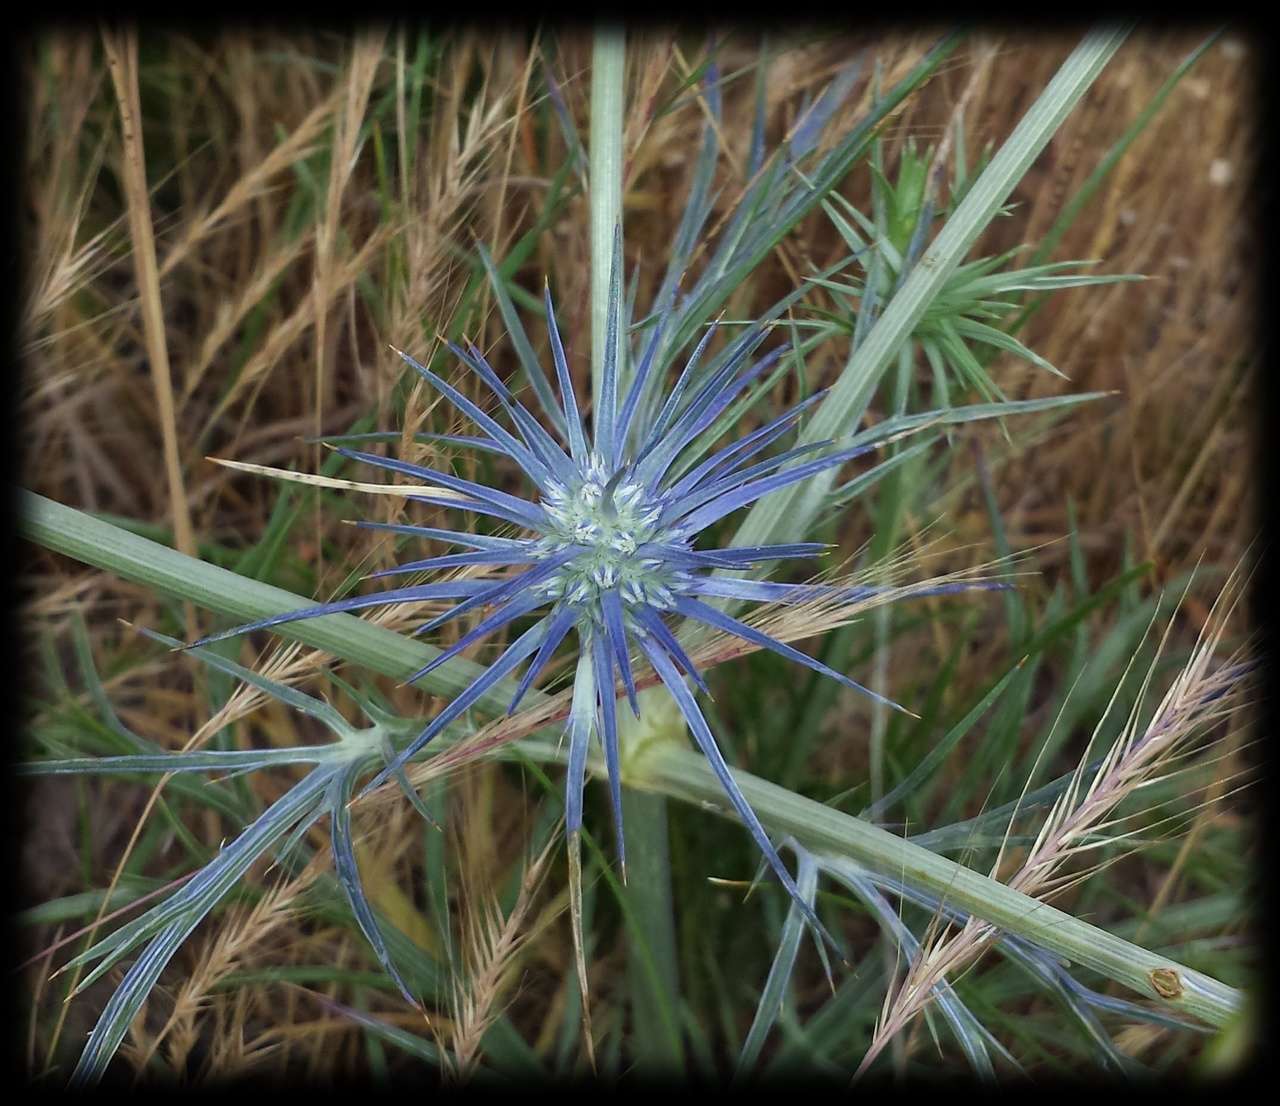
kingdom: Plantae
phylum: Tracheophyta
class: Magnoliopsida
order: Apiales
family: Apiaceae
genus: Eryngium
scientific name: Eryngium ovinum
